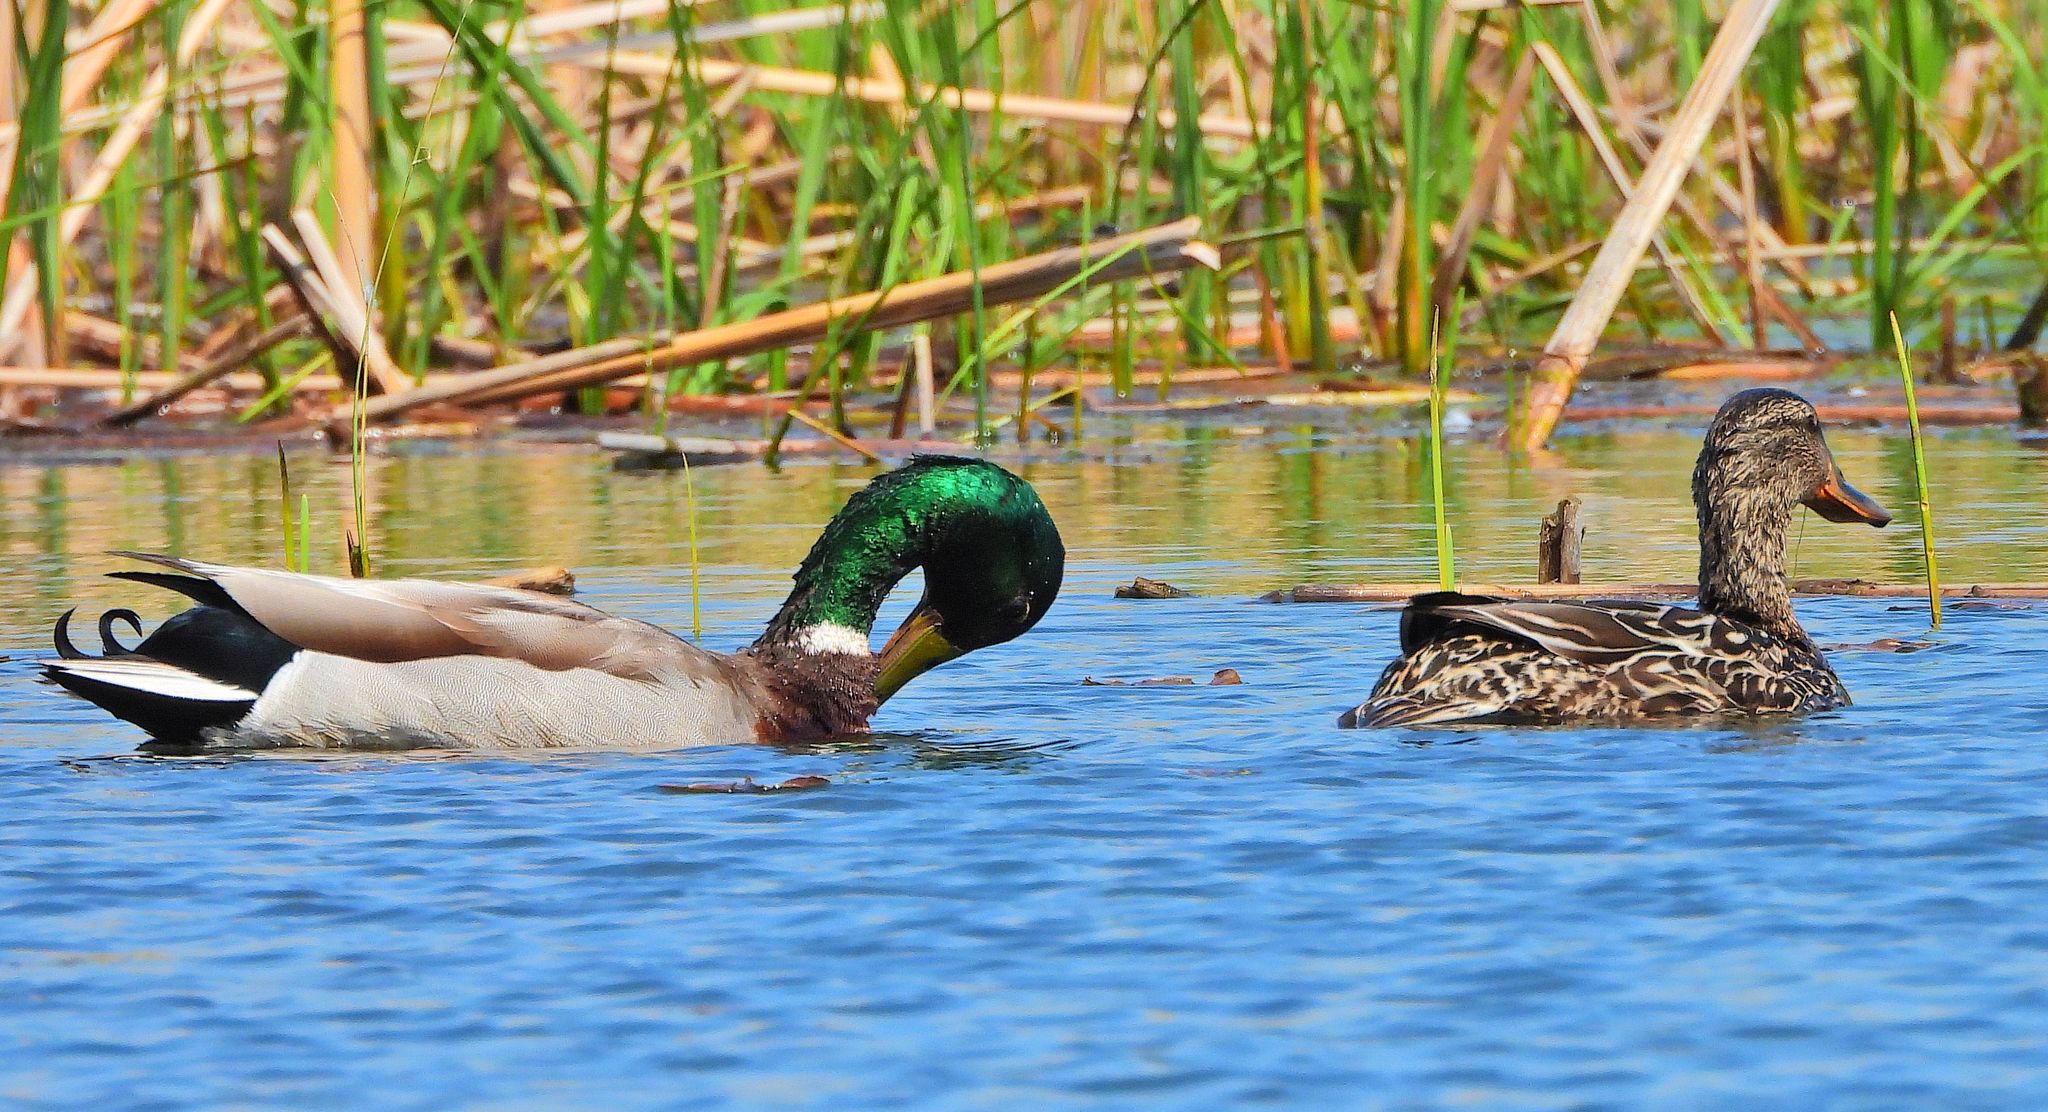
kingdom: Animalia
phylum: Chordata
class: Aves
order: Anseriformes
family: Anatidae
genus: Anas
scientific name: Anas platyrhynchos
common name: Mallard
